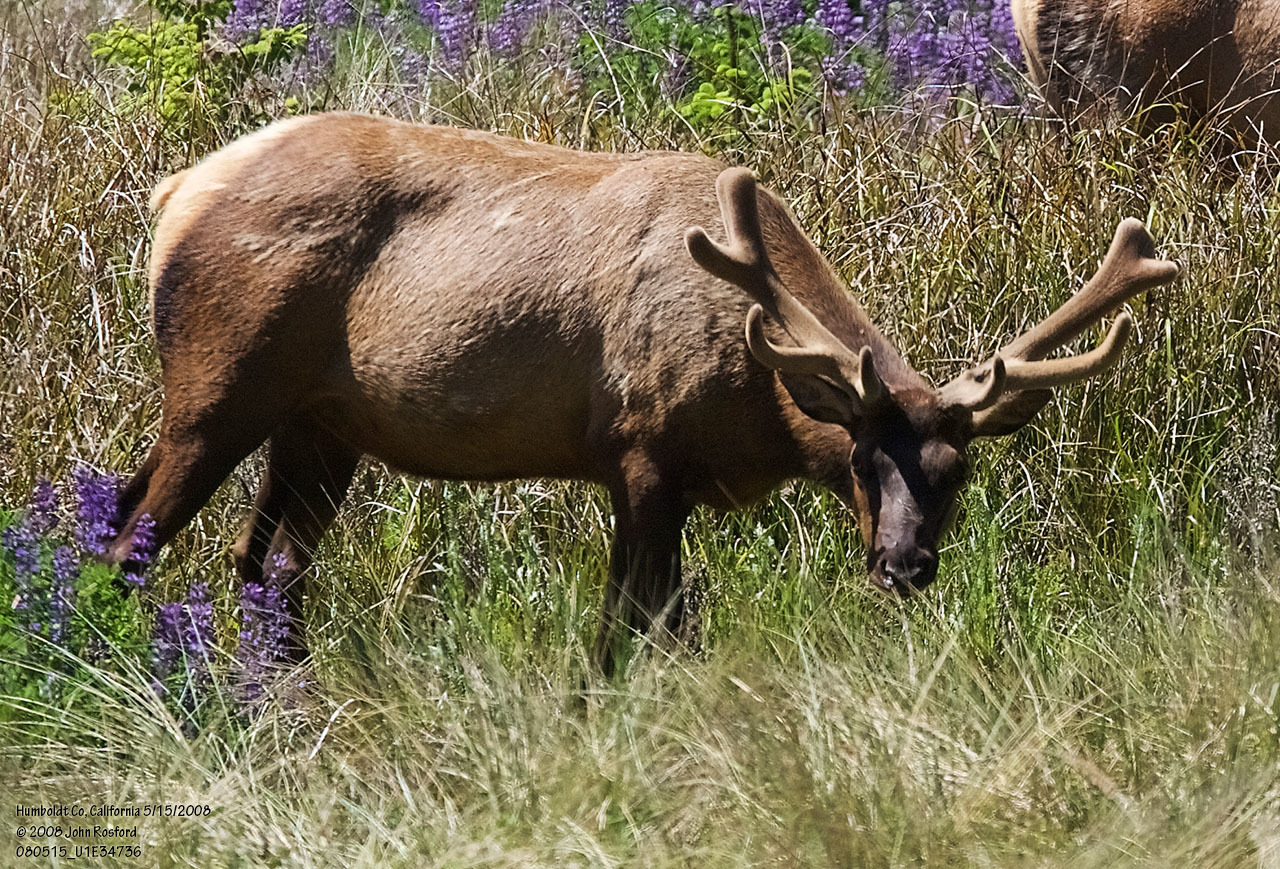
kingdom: Animalia
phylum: Chordata
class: Mammalia
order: Artiodactyla
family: Cervidae
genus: Cervus
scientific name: Cervus elaphus
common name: Red deer
